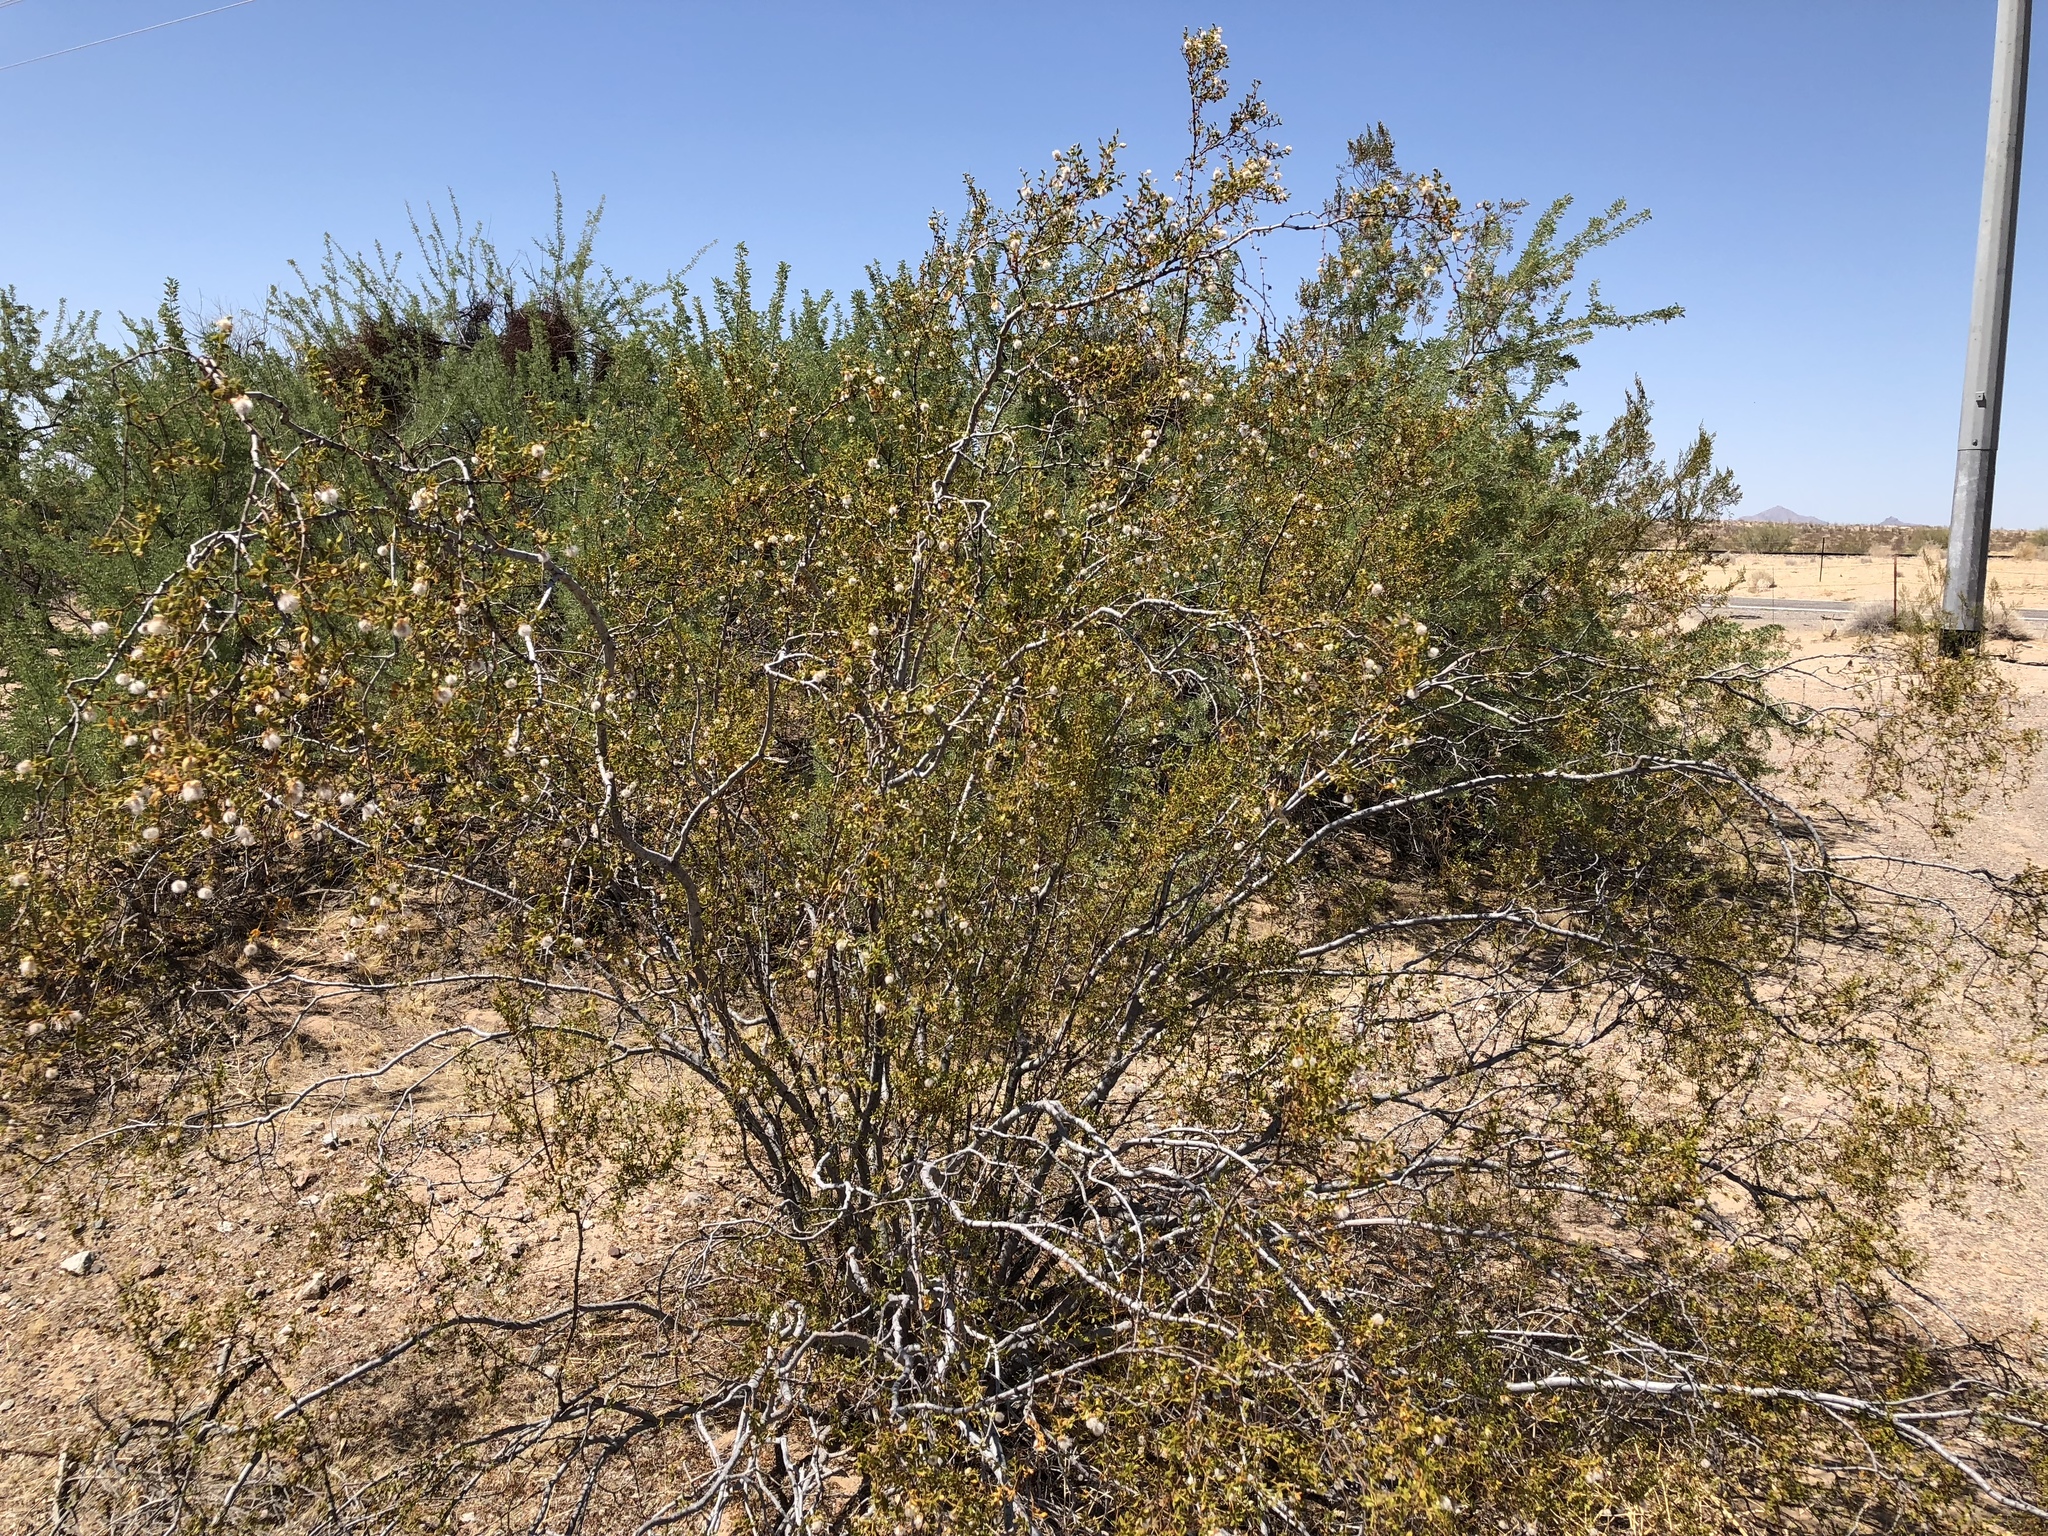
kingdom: Plantae
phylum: Tracheophyta
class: Magnoliopsida
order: Zygophyllales
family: Zygophyllaceae
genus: Larrea
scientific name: Larrea tridentata
